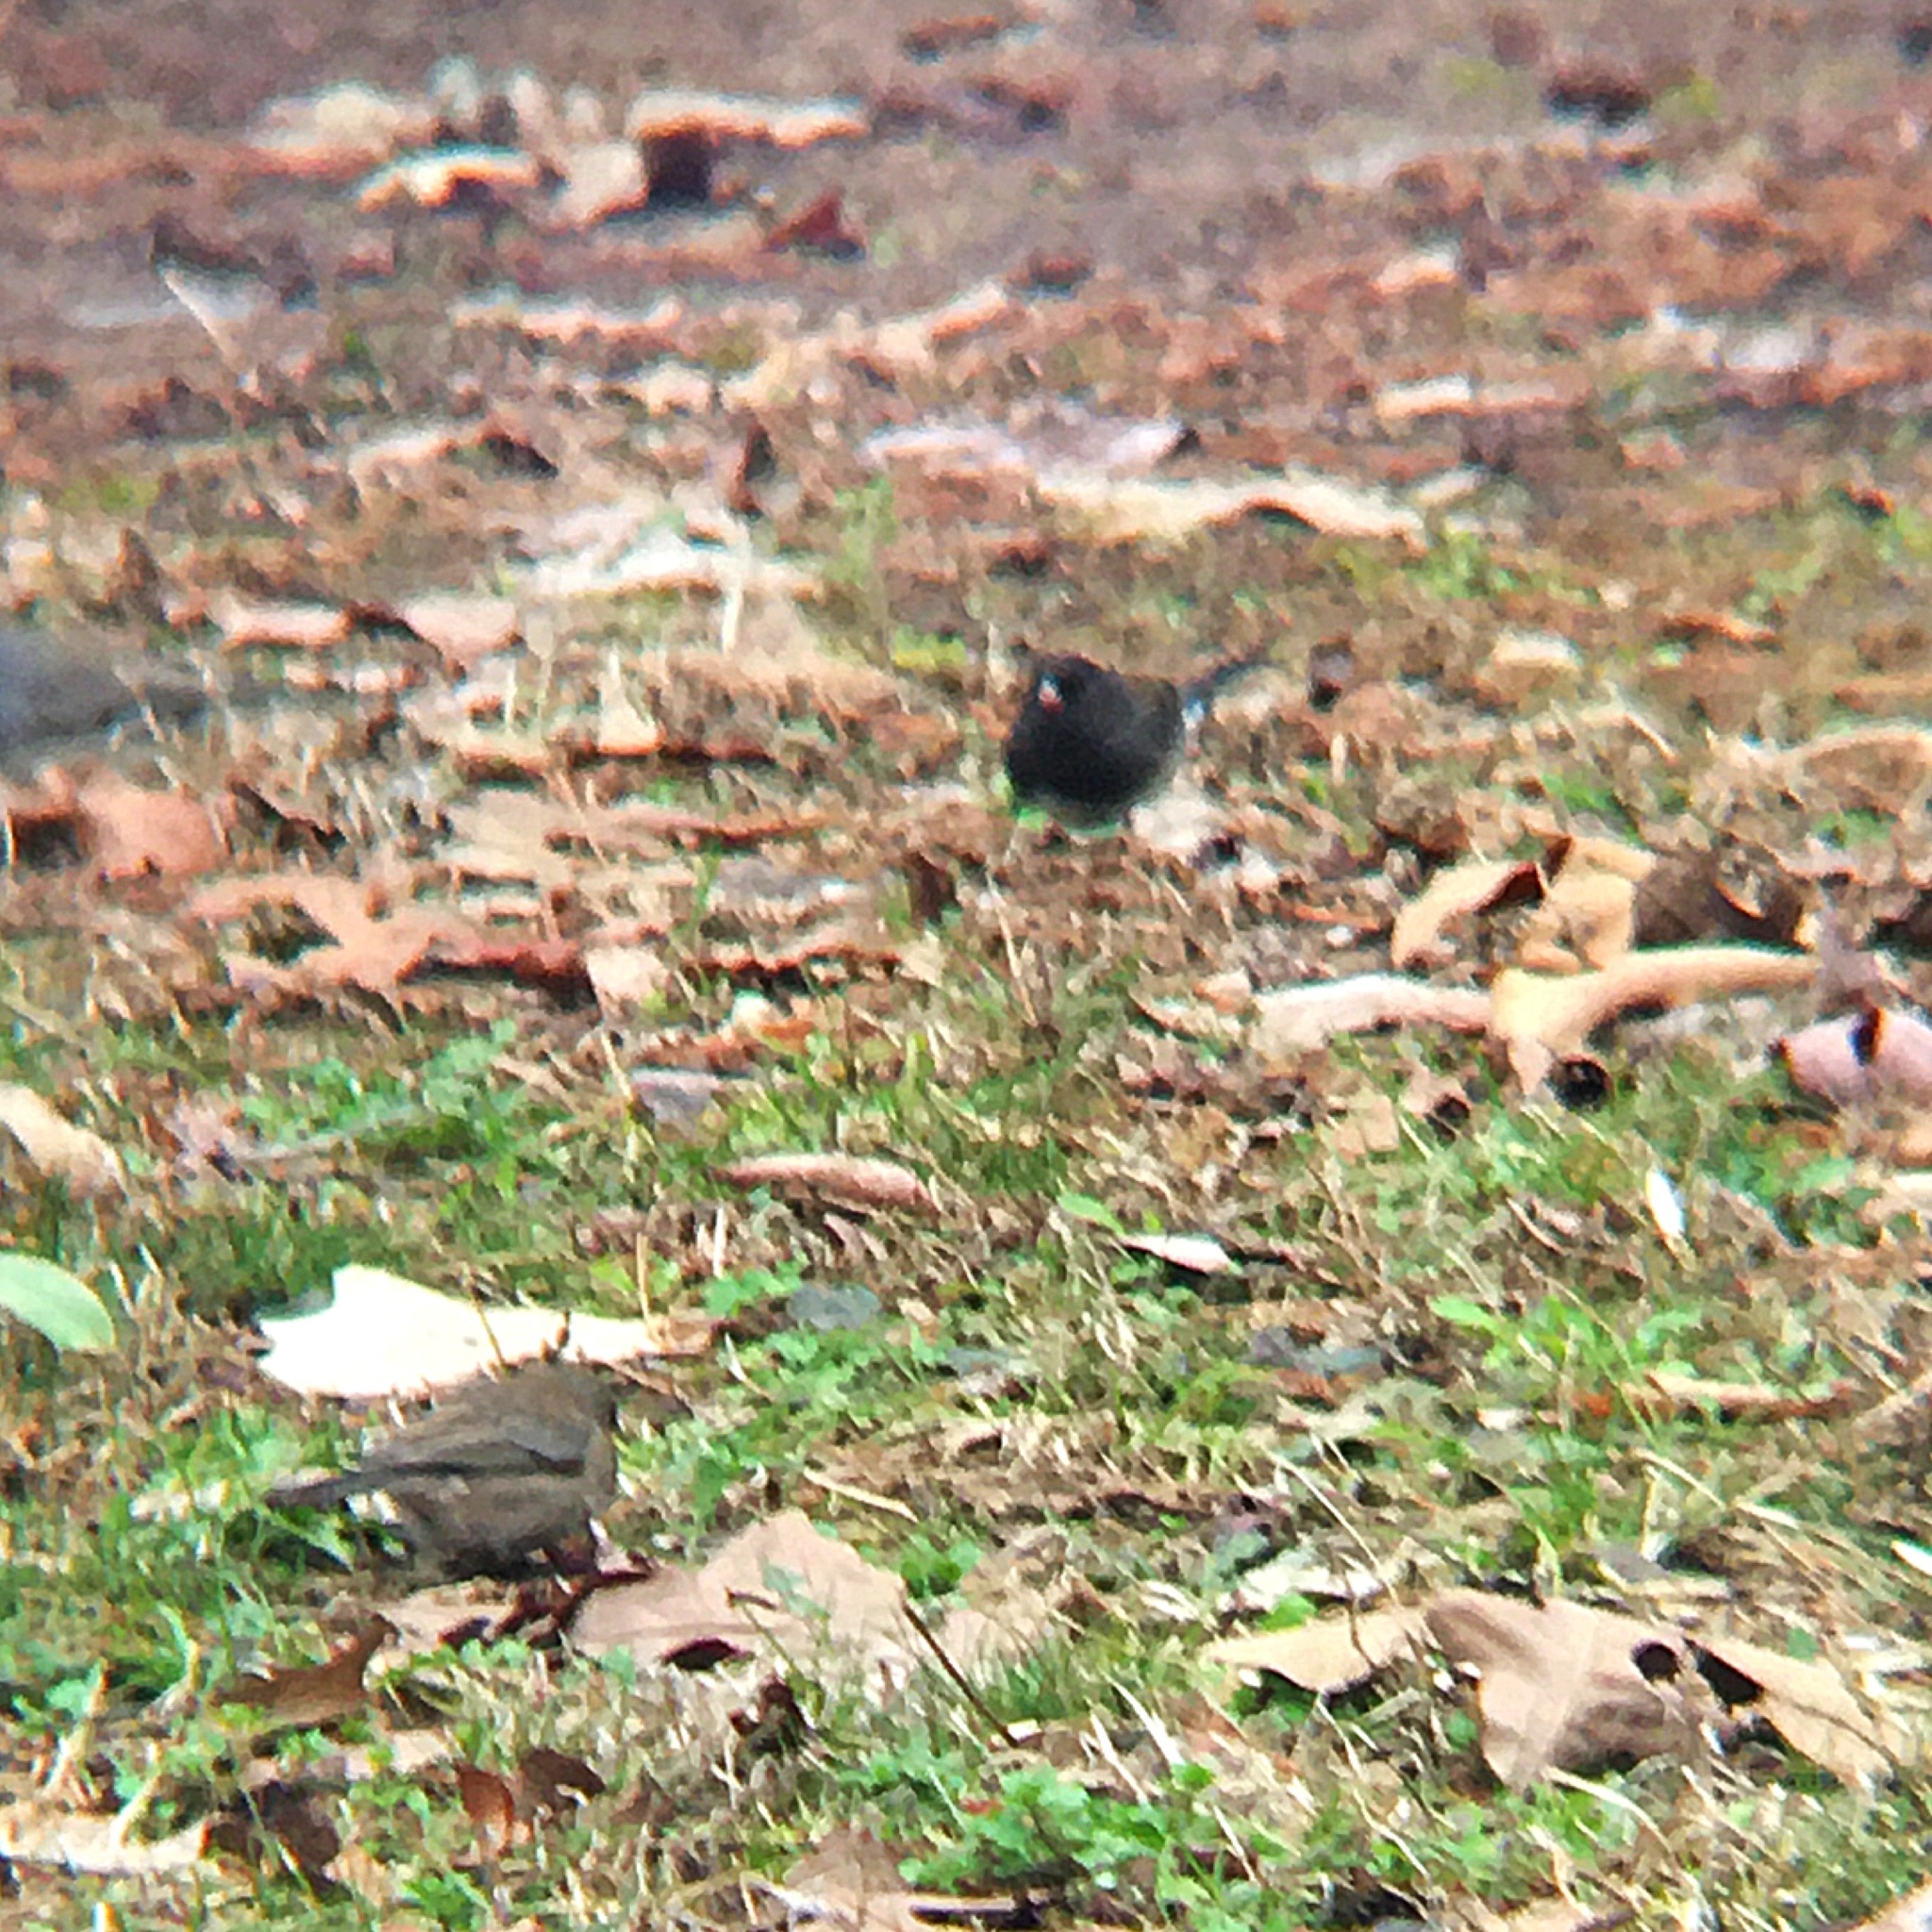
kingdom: Animalia
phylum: Chordata
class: Aves
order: Passeriformes
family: Passerellidae
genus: Junco
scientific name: Junco hyemalis
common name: Dark-eyed junco
